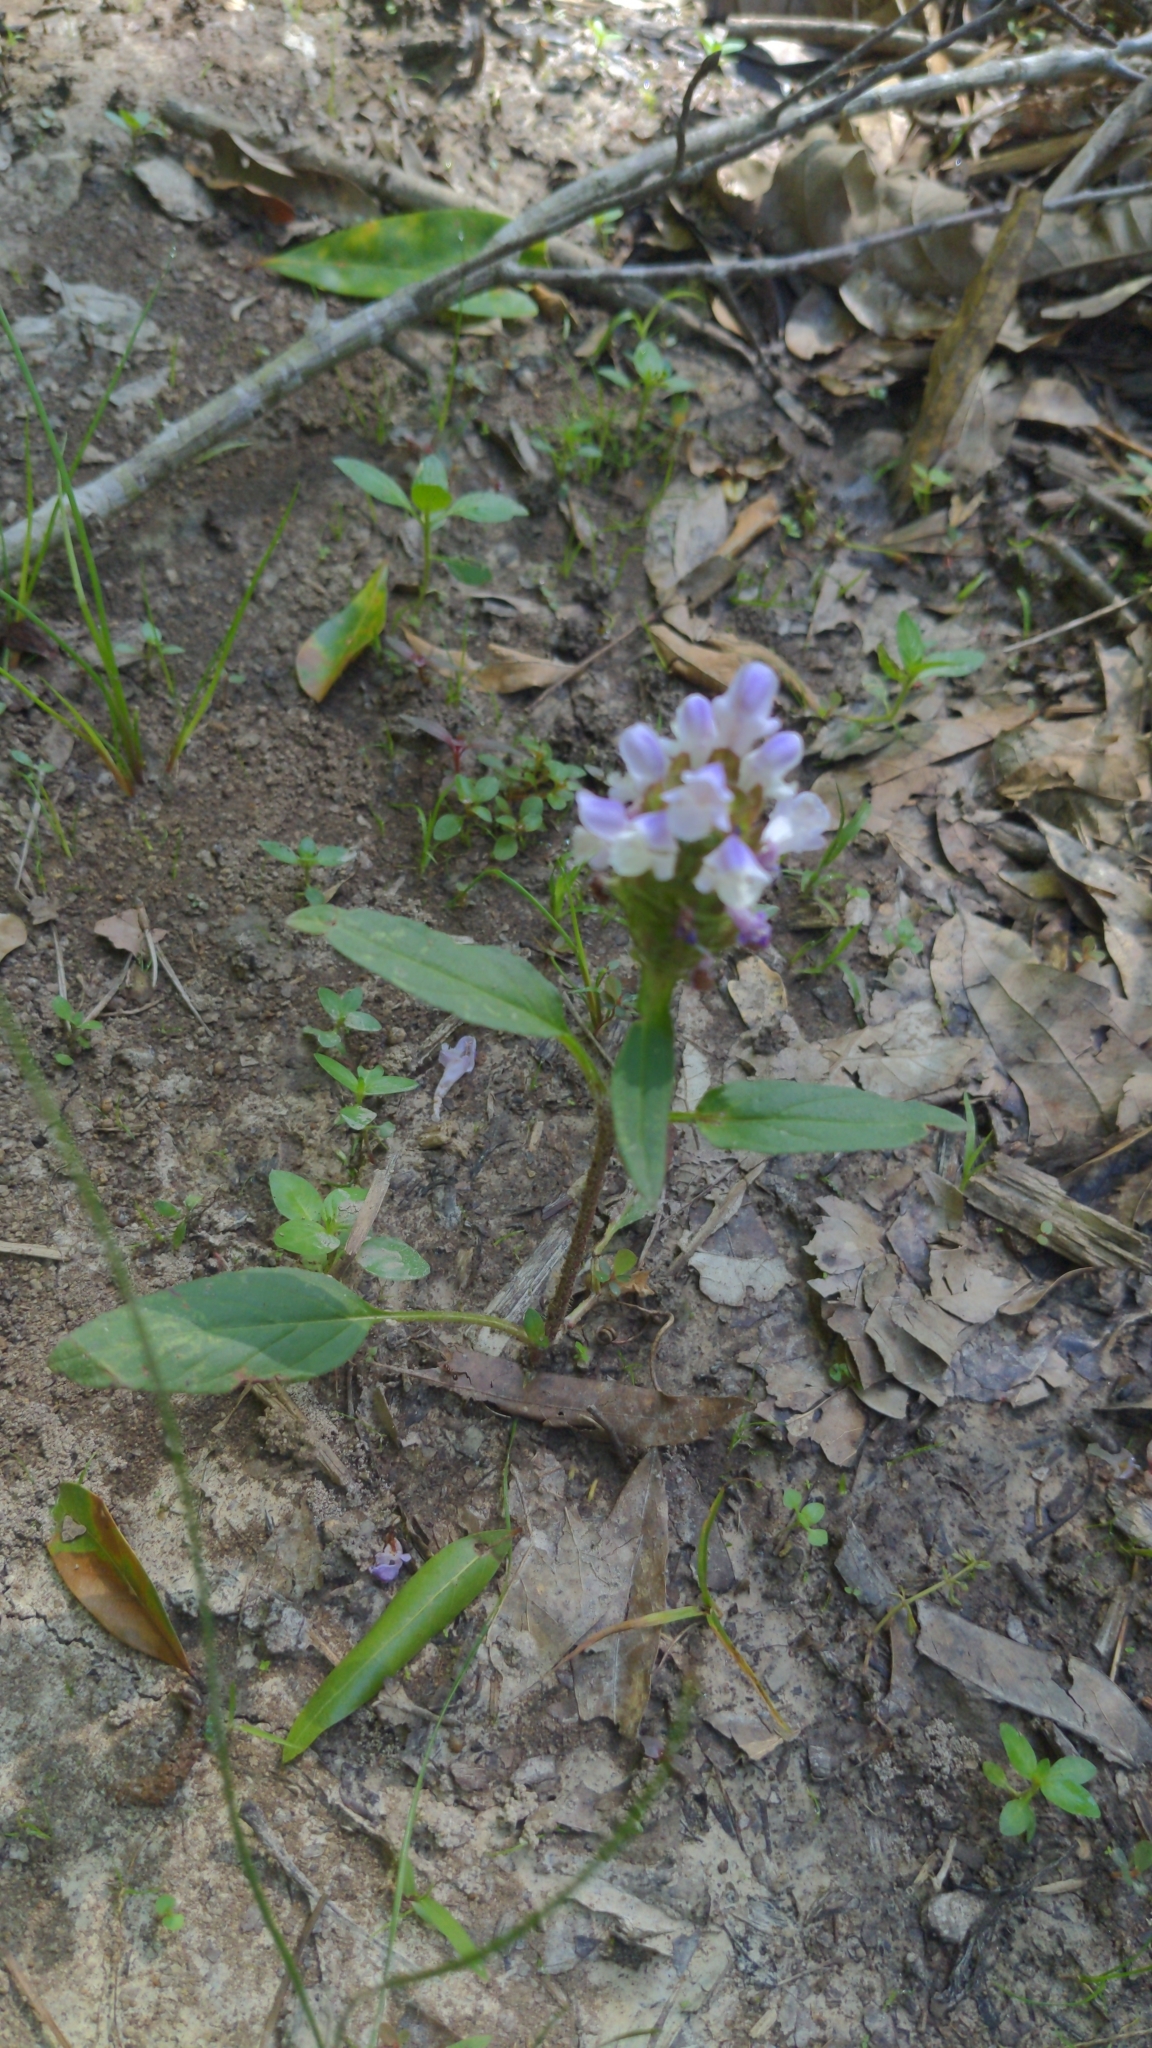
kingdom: Plantae
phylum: Tracheophyta
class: Magnoliopsida
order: Lamiales
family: Lamiaceae
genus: Prunella
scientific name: Prunella vulgaris
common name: Heal-all
